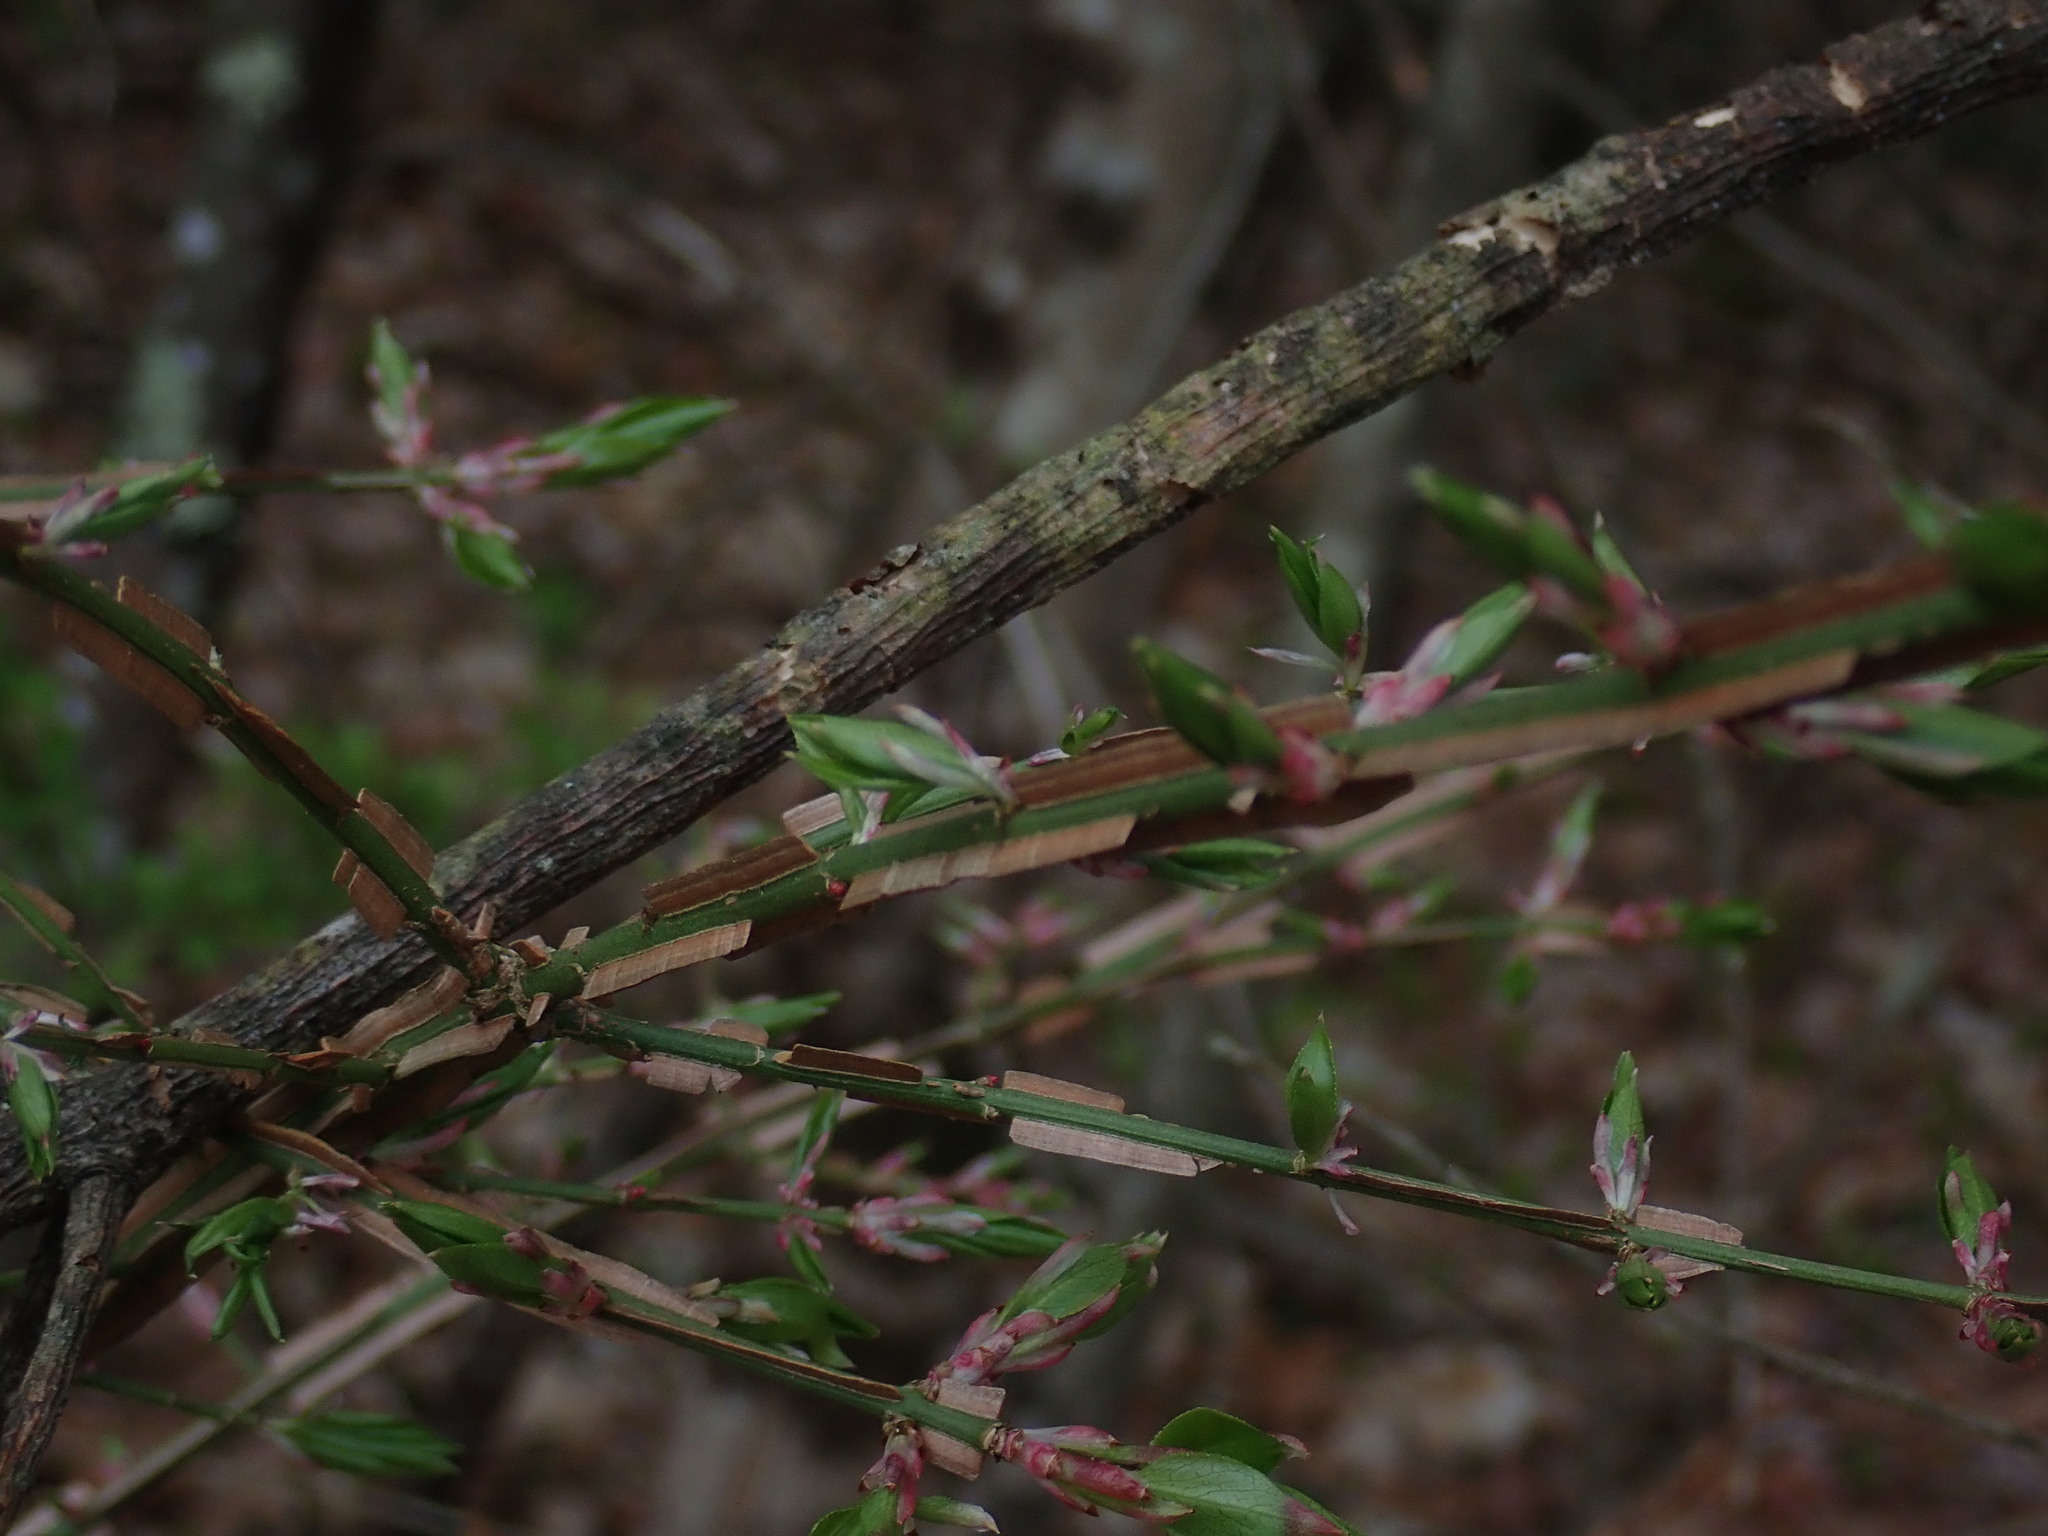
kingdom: Plantae
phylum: Tracheophyta
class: Magnoliopsida
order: Celastrales
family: Celastraceae
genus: Euonymus
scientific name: Euonymus alatus
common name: Winged euonymus
